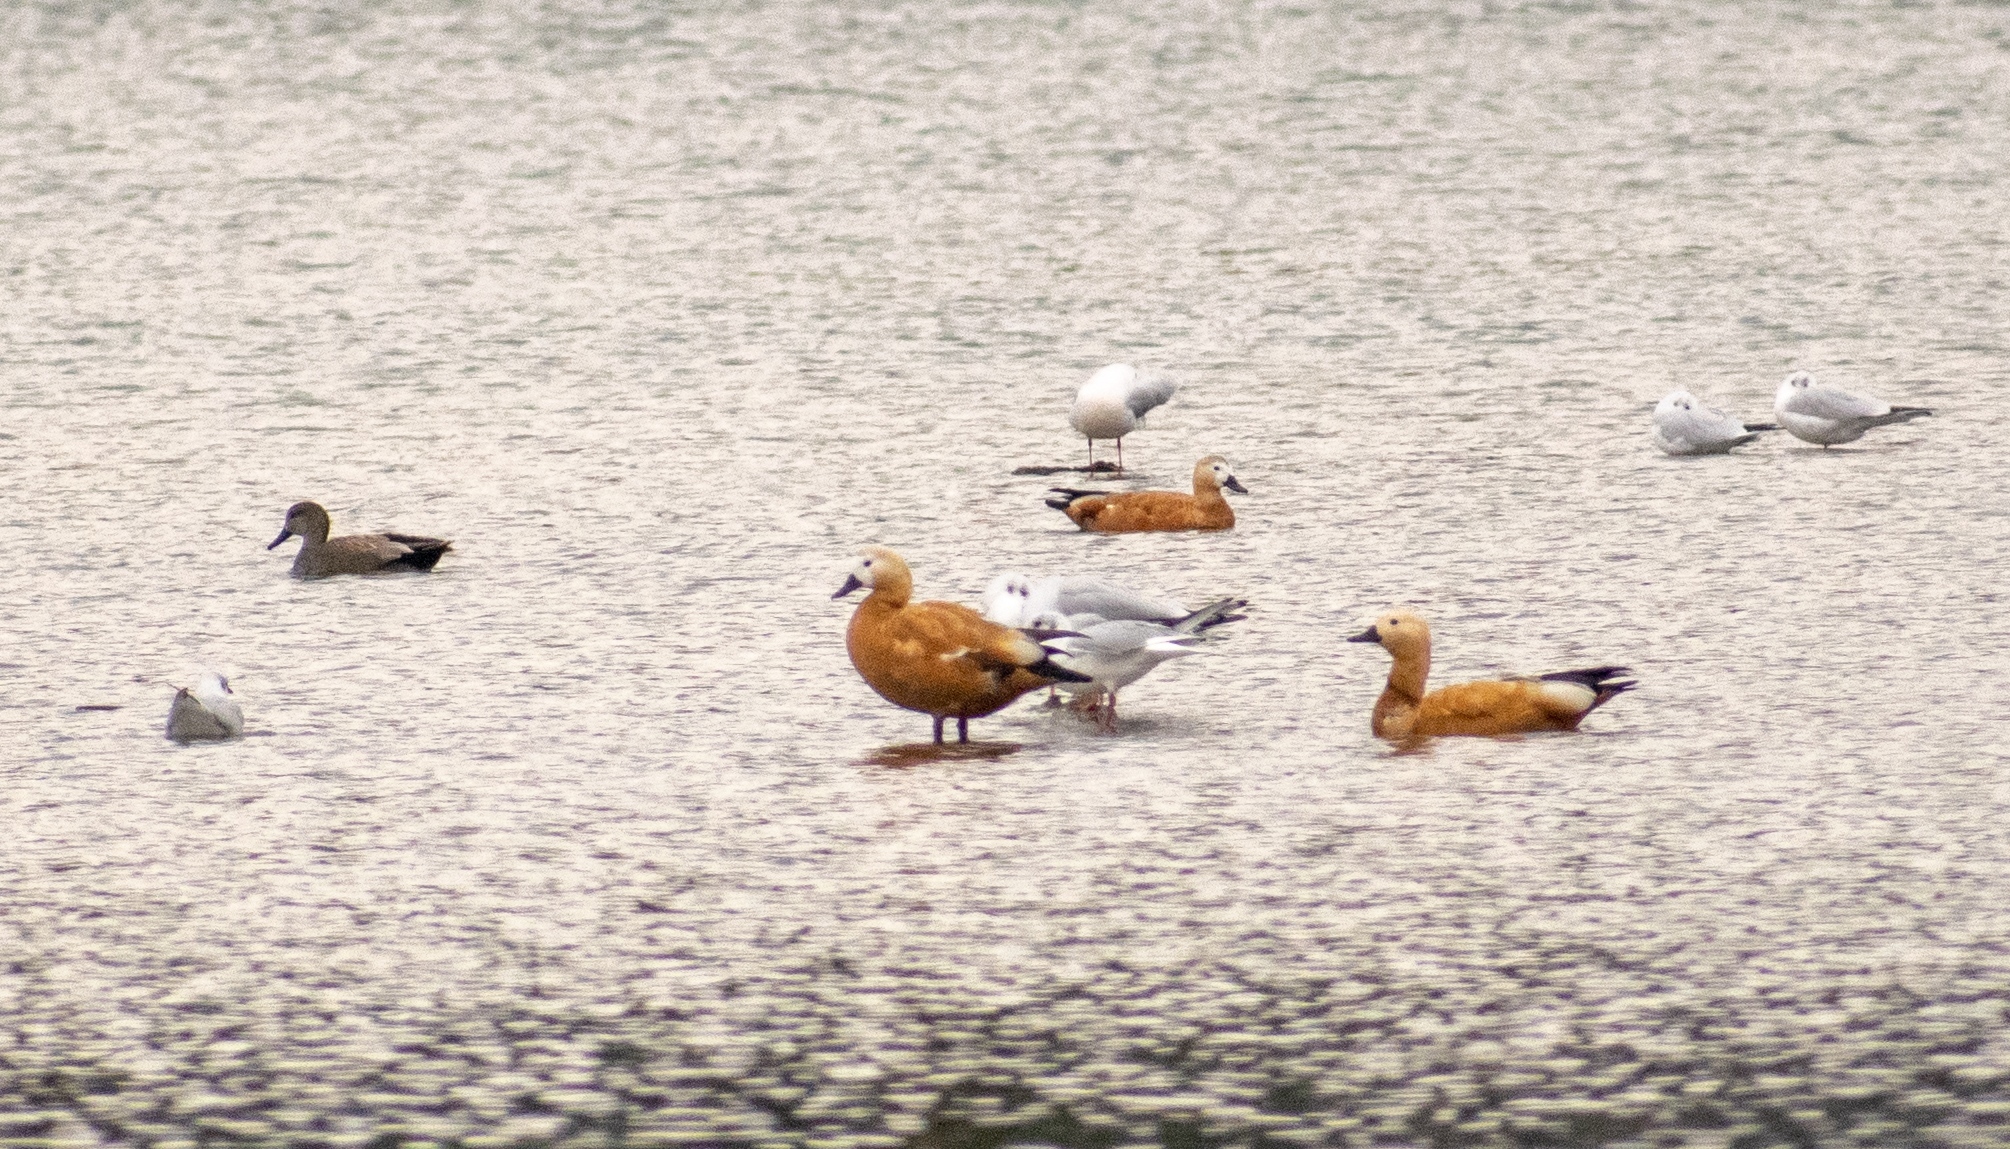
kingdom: Animalia
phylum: Chordata
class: Aves
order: Anseriformes
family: Anatidae
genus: Tadorna
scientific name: Tadorna ferruginea
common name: Ruddy shelduck
